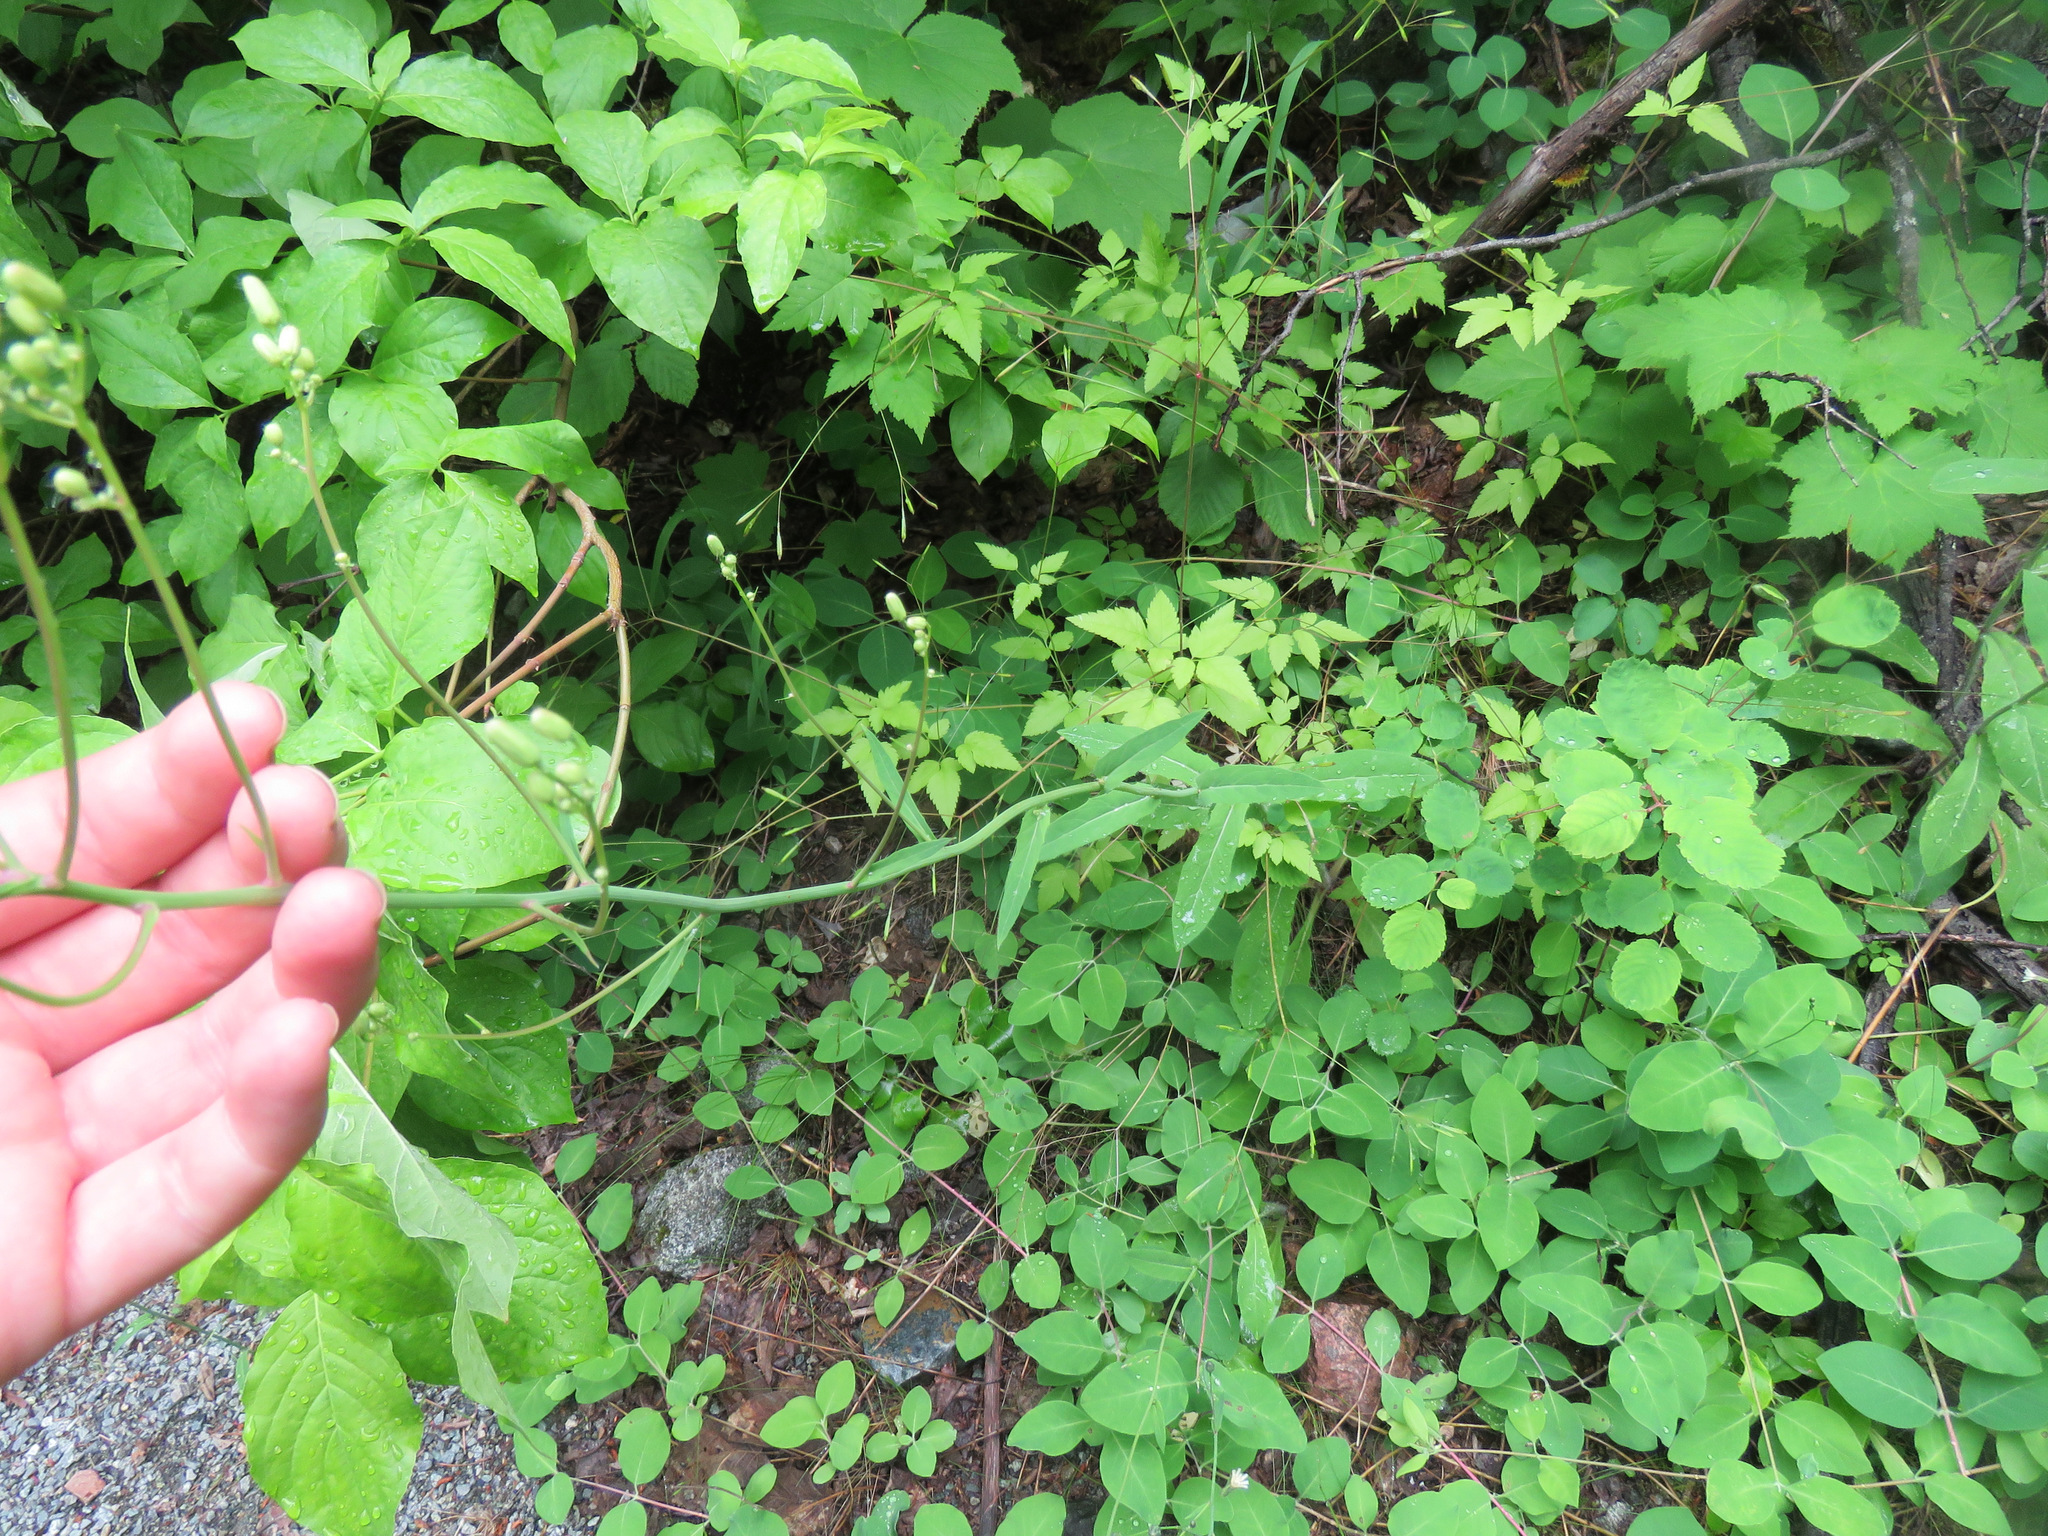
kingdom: Plantae
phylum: Tracheophyta
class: Magnoliopsida
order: Asterales
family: Asteraceae
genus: Hieracium
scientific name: Hieracium albiflorum
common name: White hawkweed
